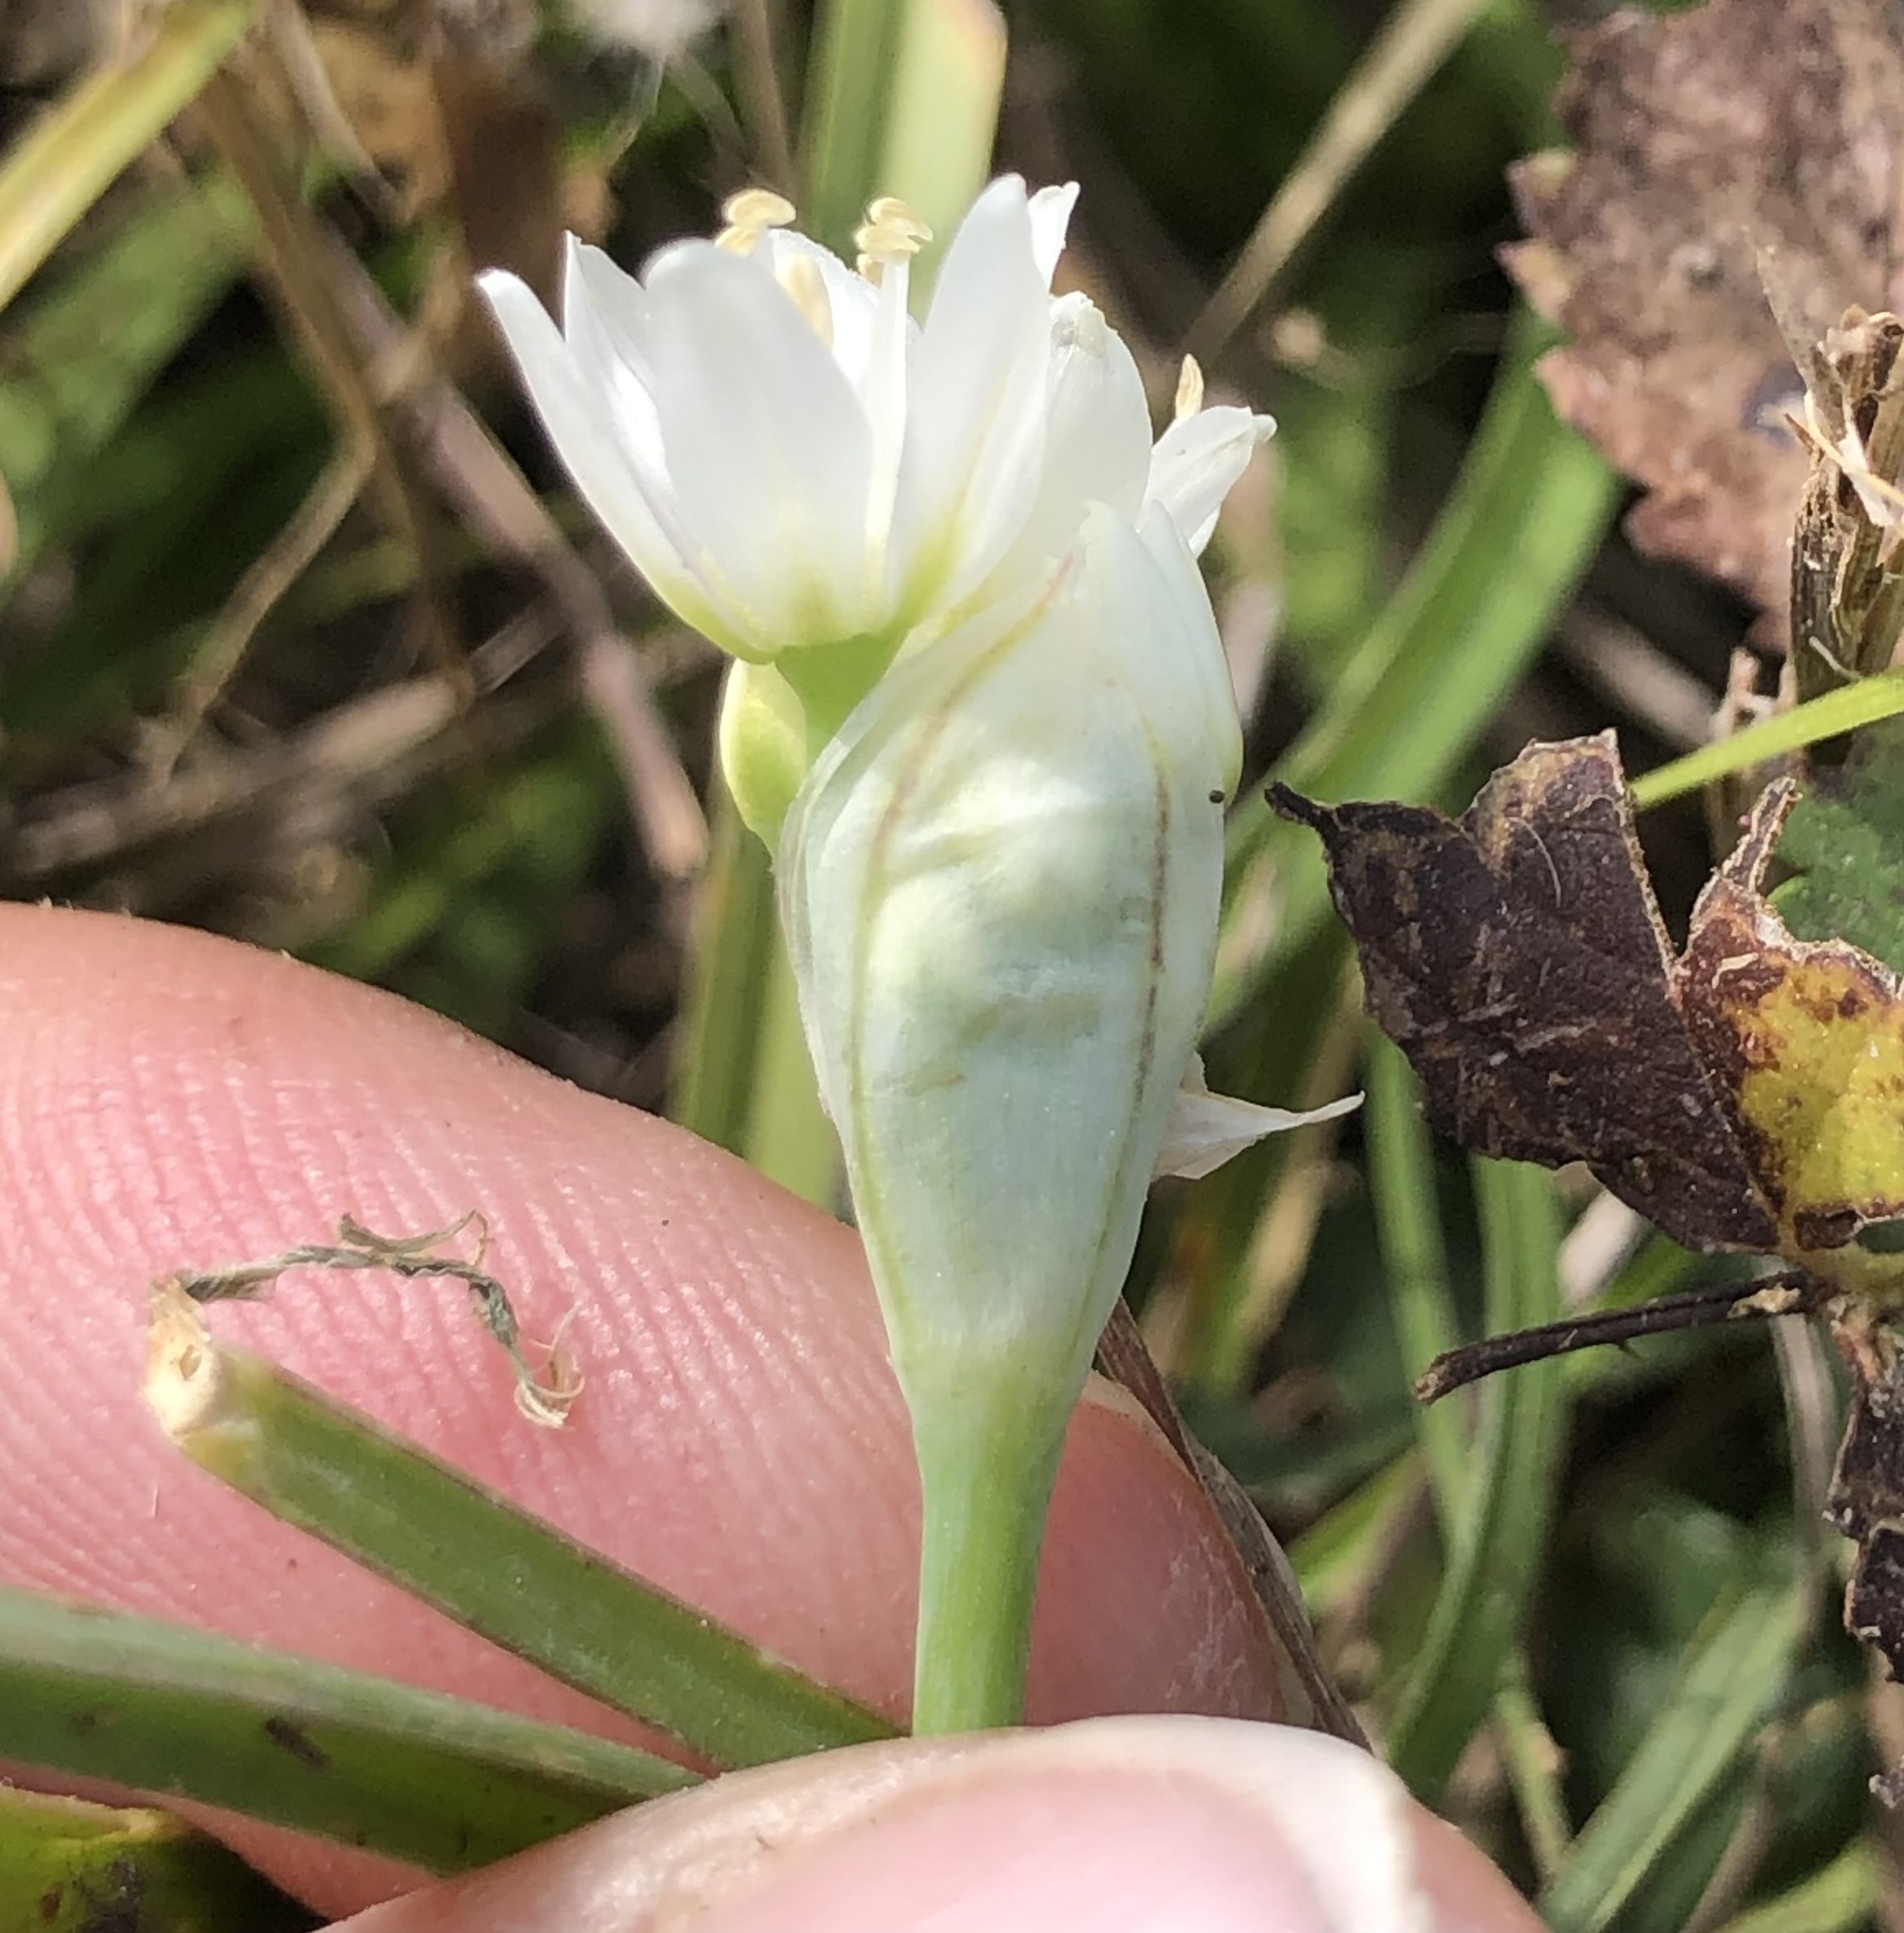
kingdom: Plantae
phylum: Tracheophyta
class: Liliopsida
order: Asparagales
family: Amaryllidaceae
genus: Allium
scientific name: Allium drummondii
